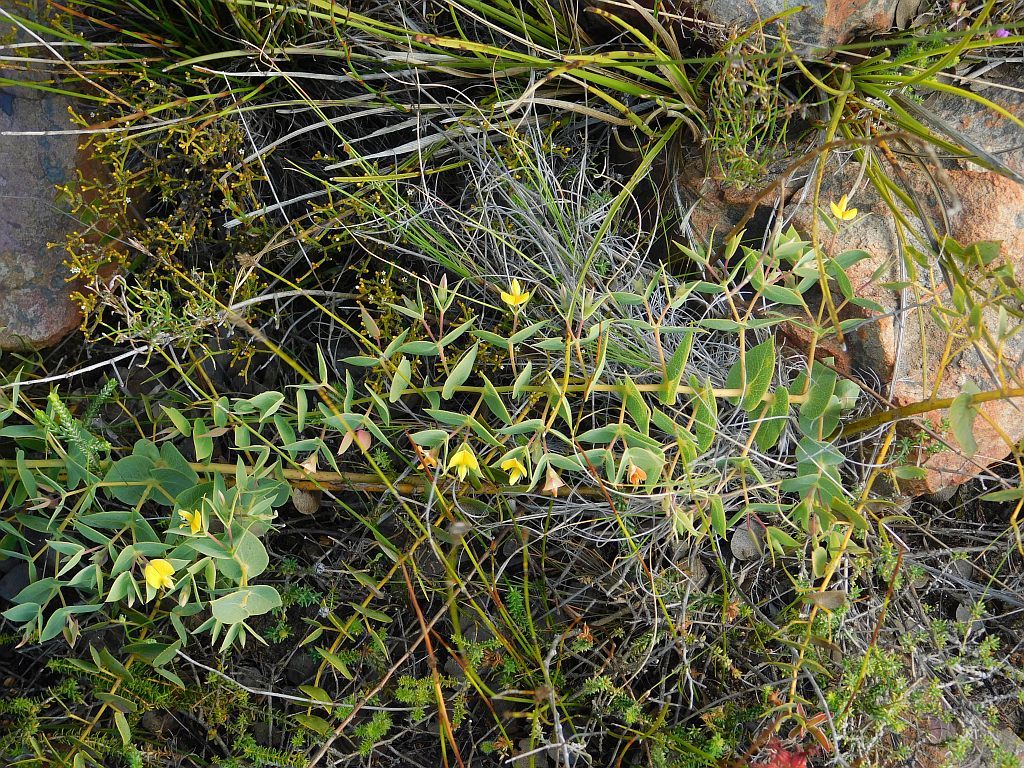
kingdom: Plantae
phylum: Tracheophyta
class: Magnoliopsida
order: Fabales
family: Fabaceae
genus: Rafnia
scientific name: Rafnia acuminata
